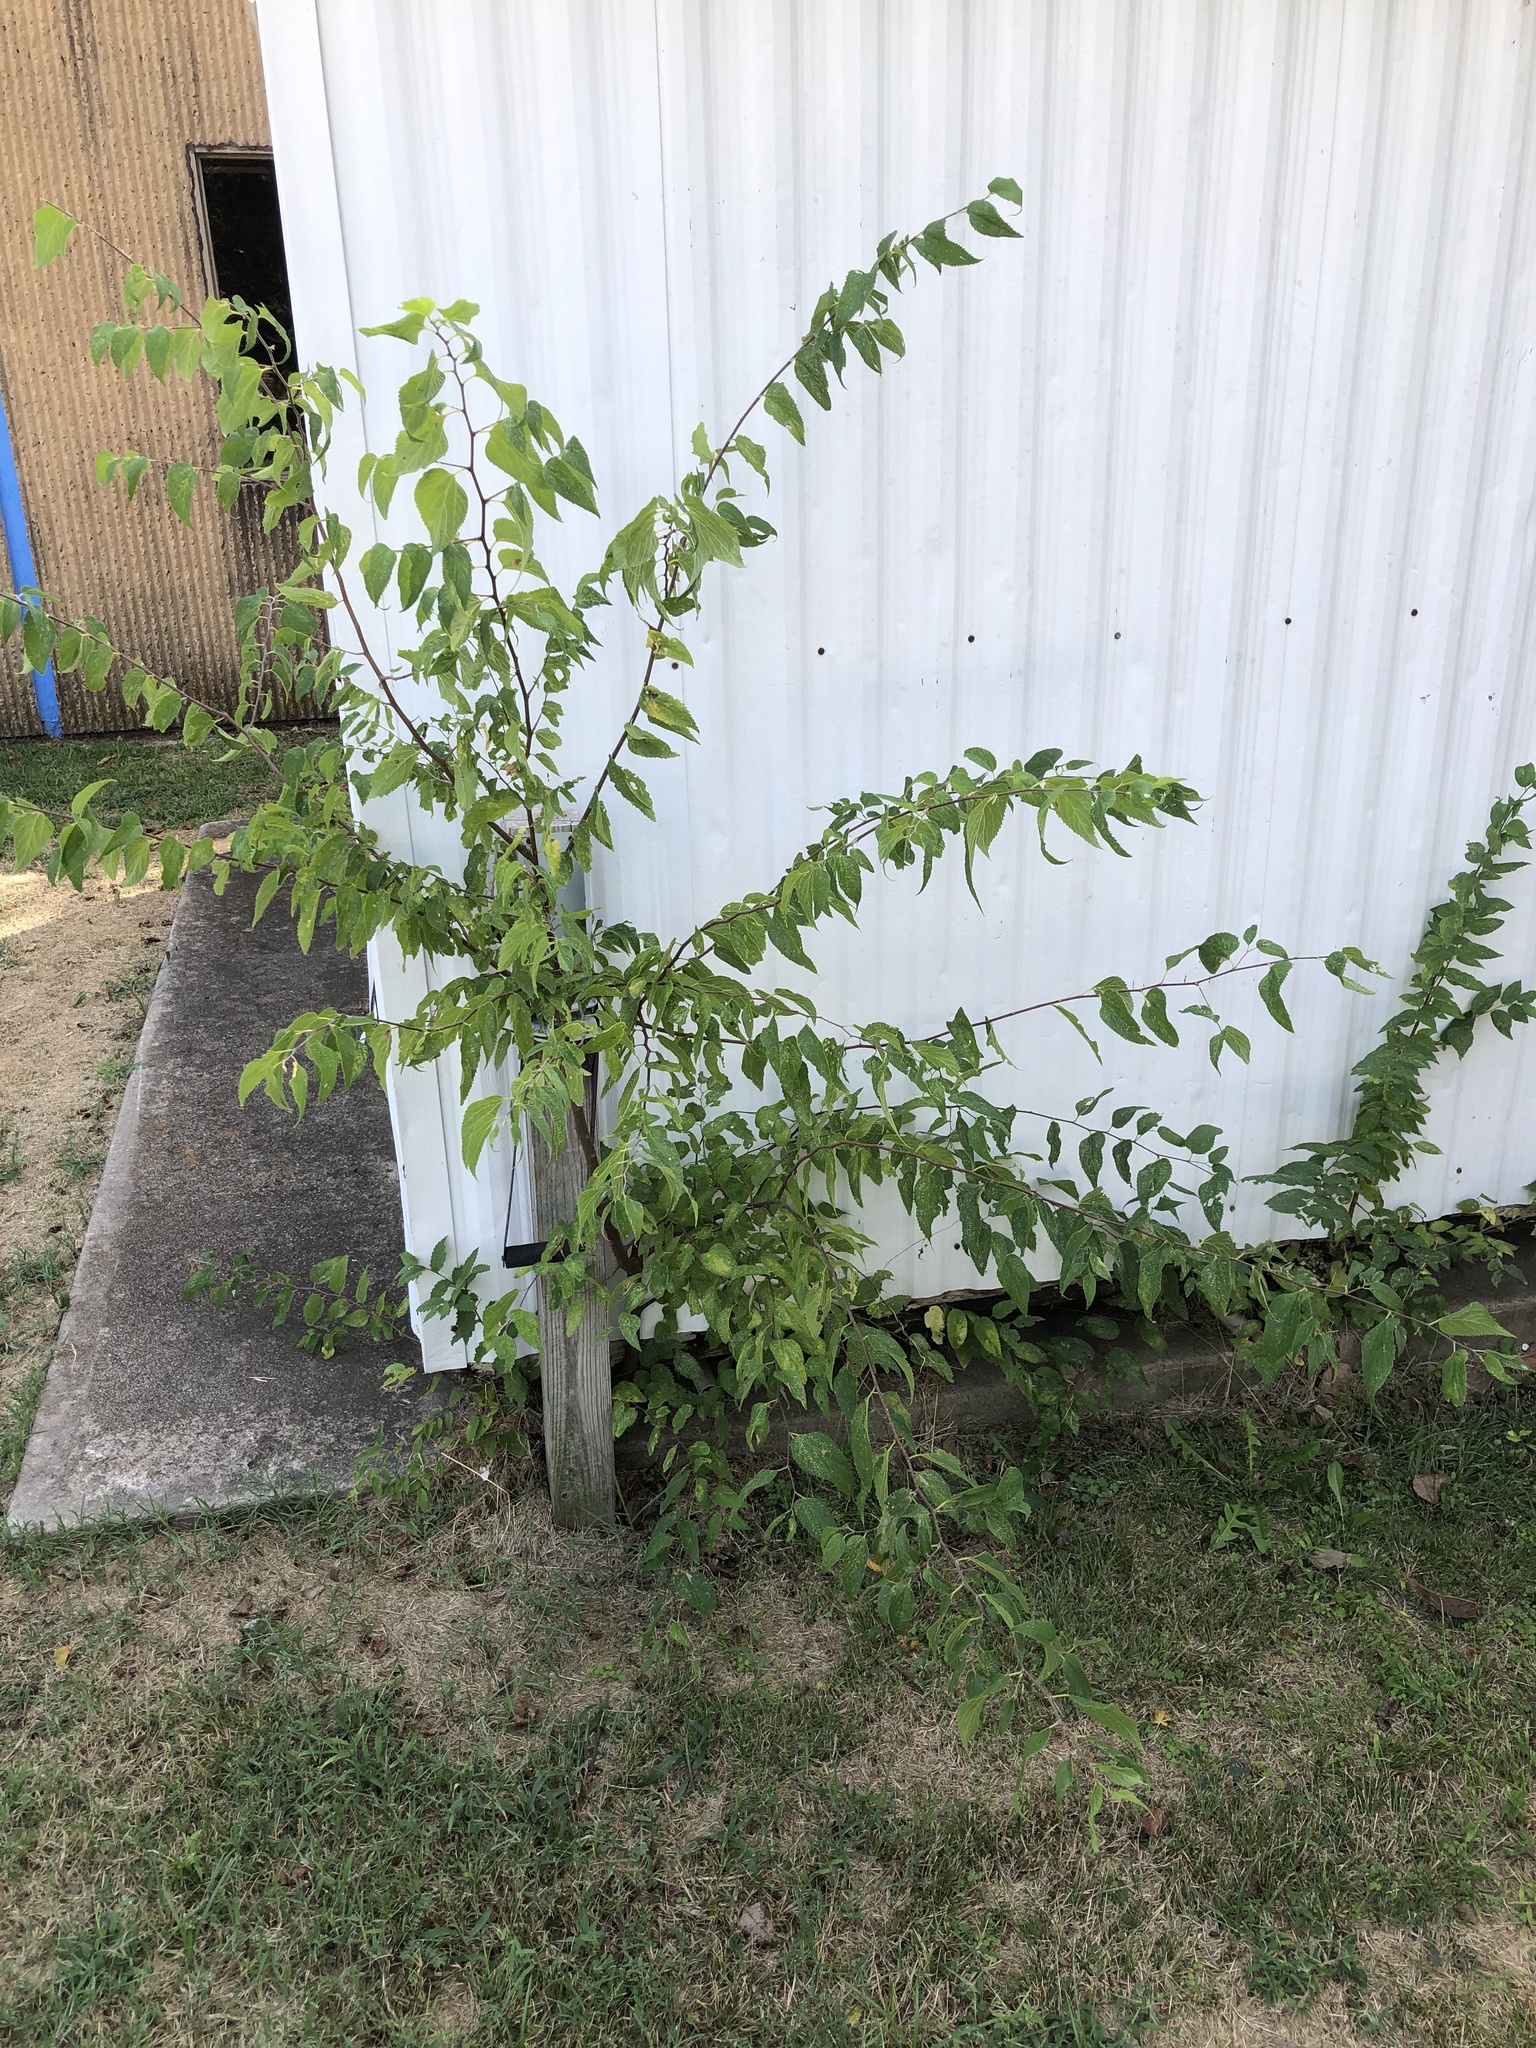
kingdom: Plantae
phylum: Tracheophyta
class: Magnoliopsida
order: Rosales
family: Cannabaceae
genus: Celtis
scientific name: Celtis laevigata
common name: Sugarberry
